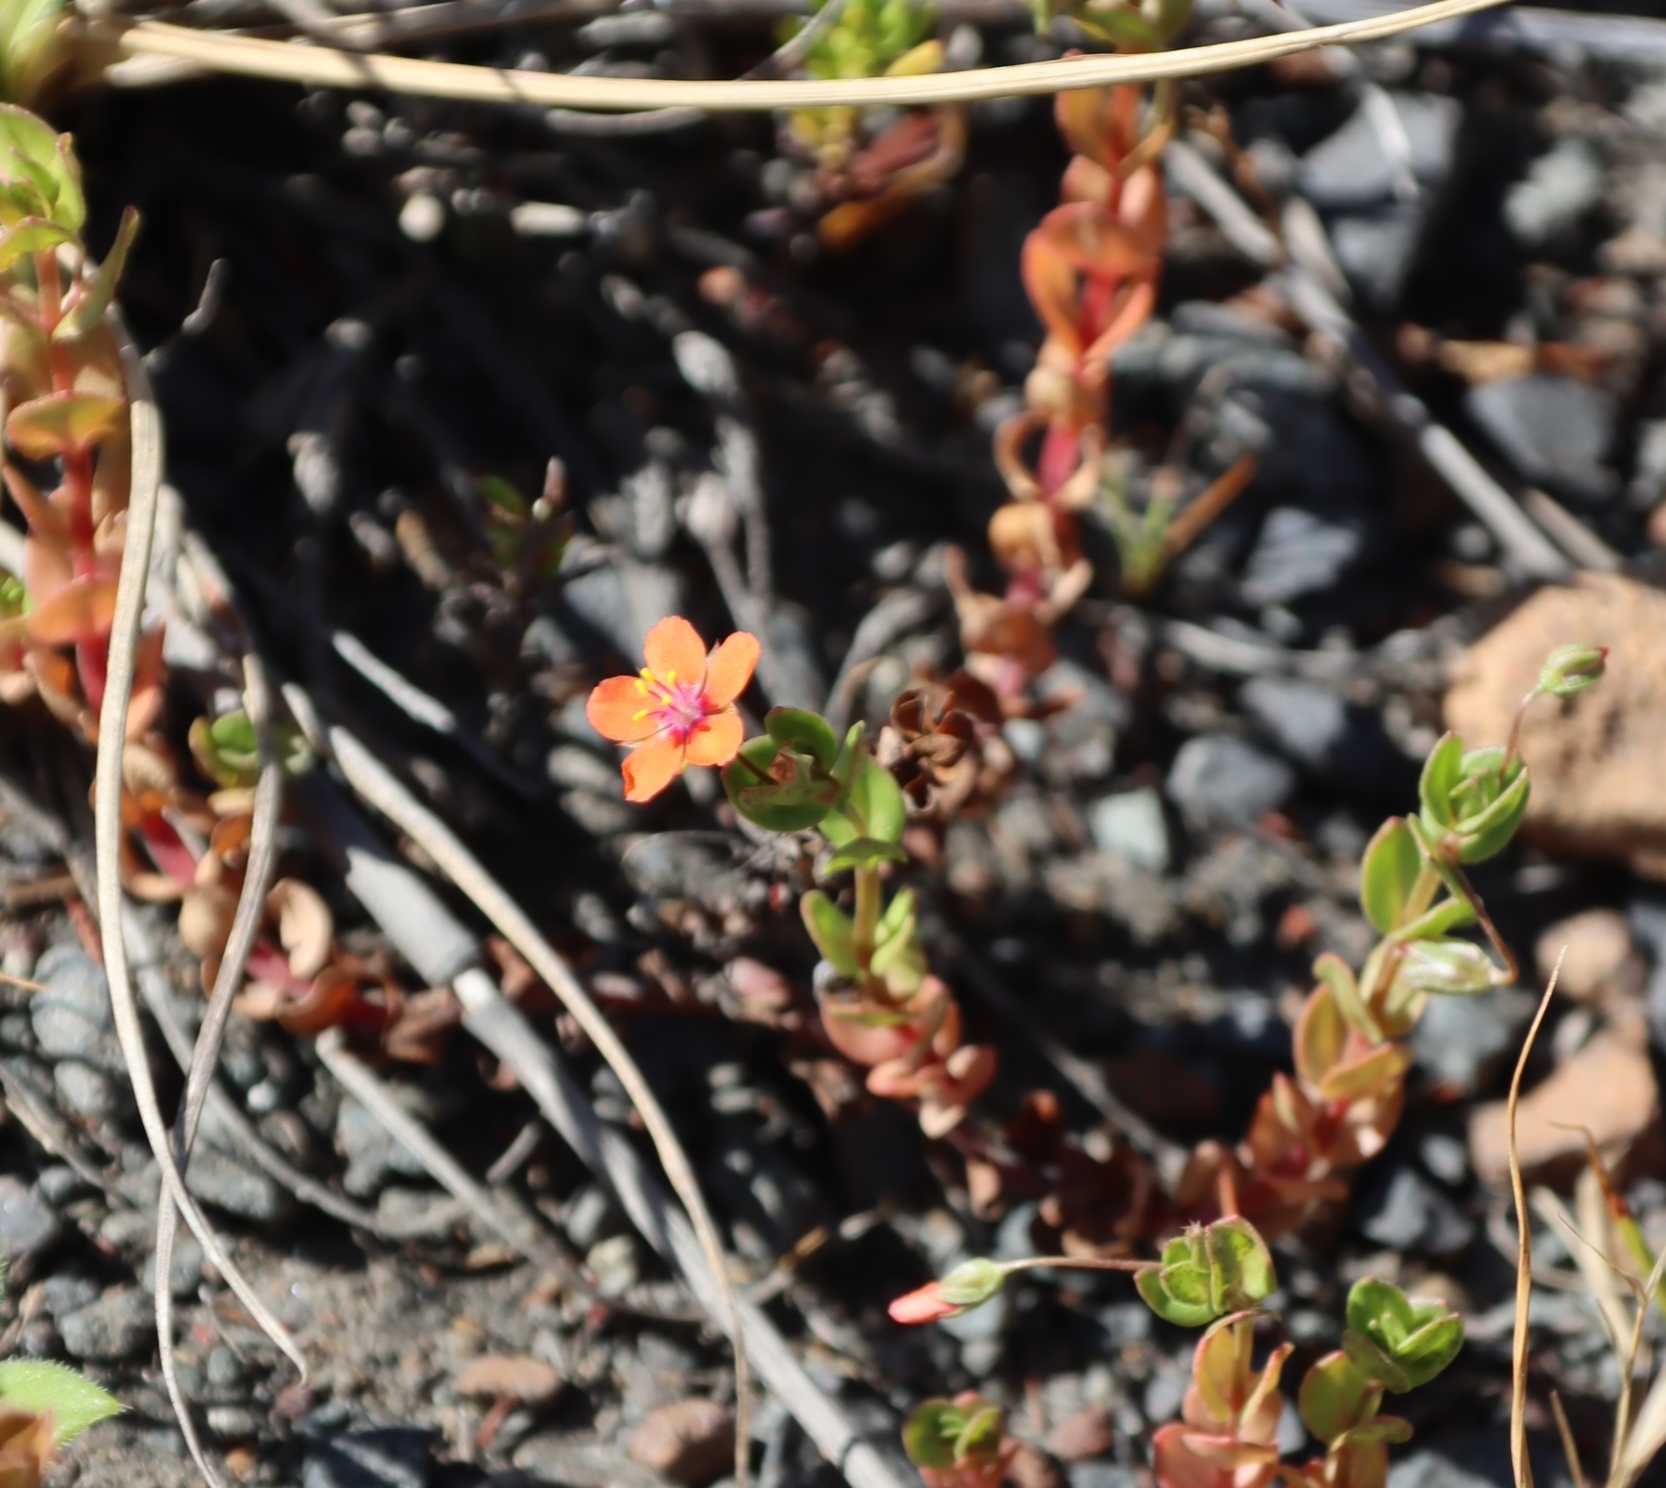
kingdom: Plantae
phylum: Tracheophyta
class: Magnoliopsida
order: Ericales
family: Primulaceae
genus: Lysimachia
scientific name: Lysimachia arvensis
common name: Scarlet pimpernel
